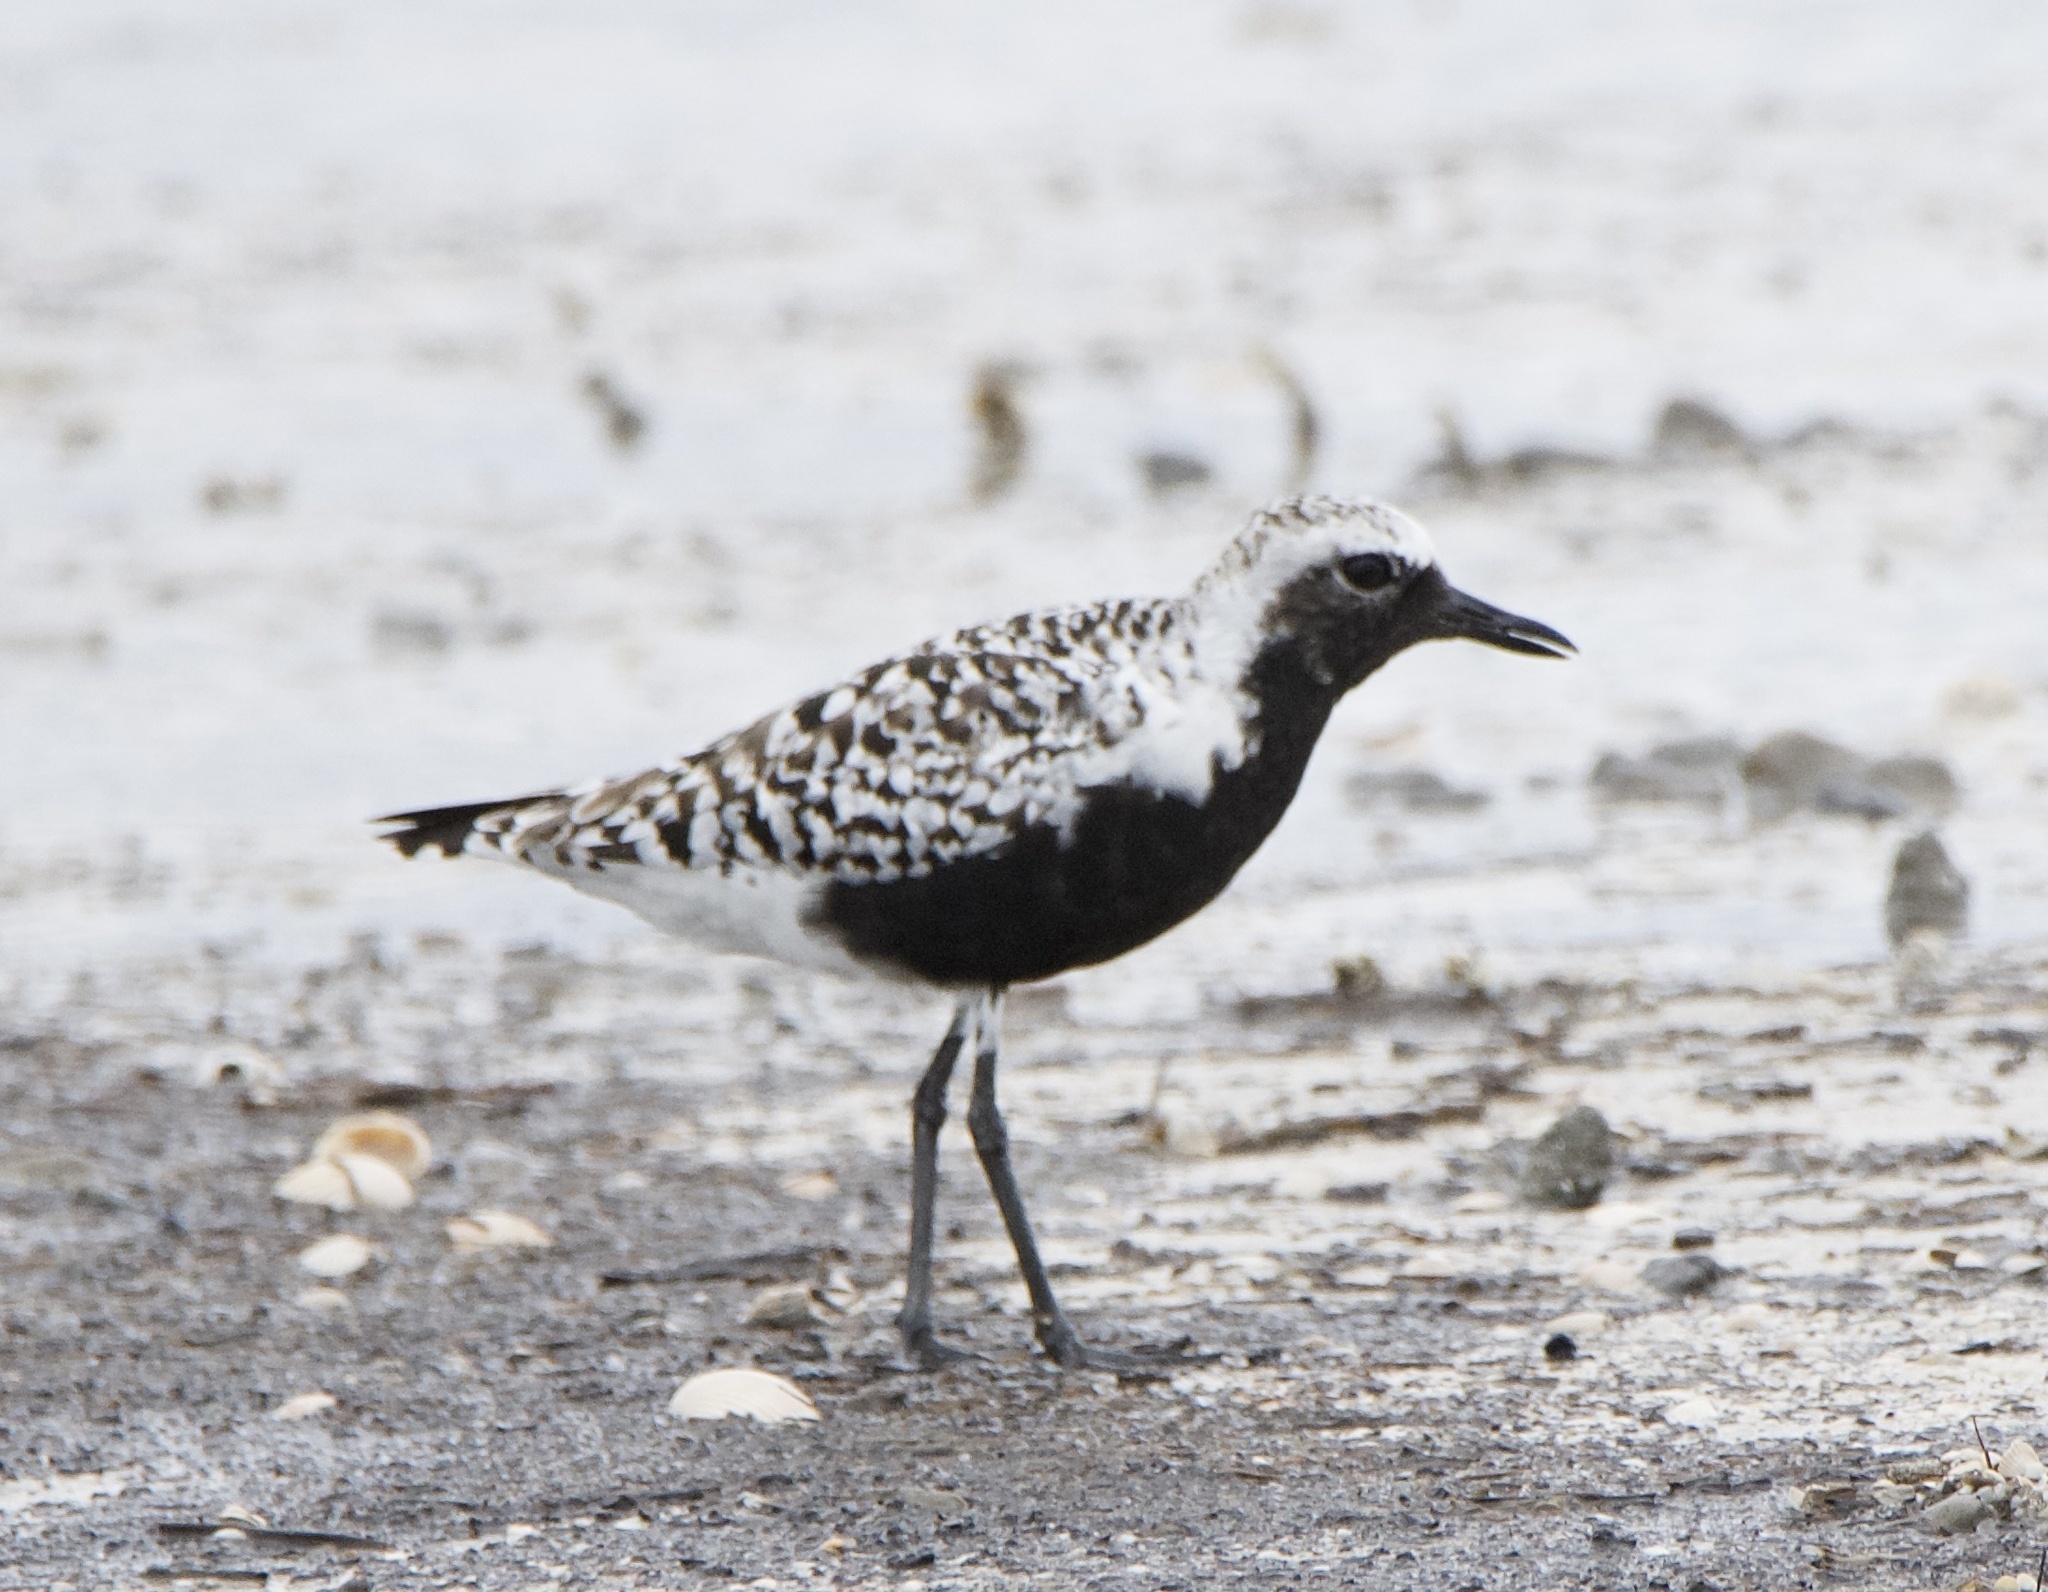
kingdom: Animalia
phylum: Chordata
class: Aves
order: Charadriiformes
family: Charadriidae
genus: Pluvialis
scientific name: Pluvialis squatarola
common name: Grey plover
